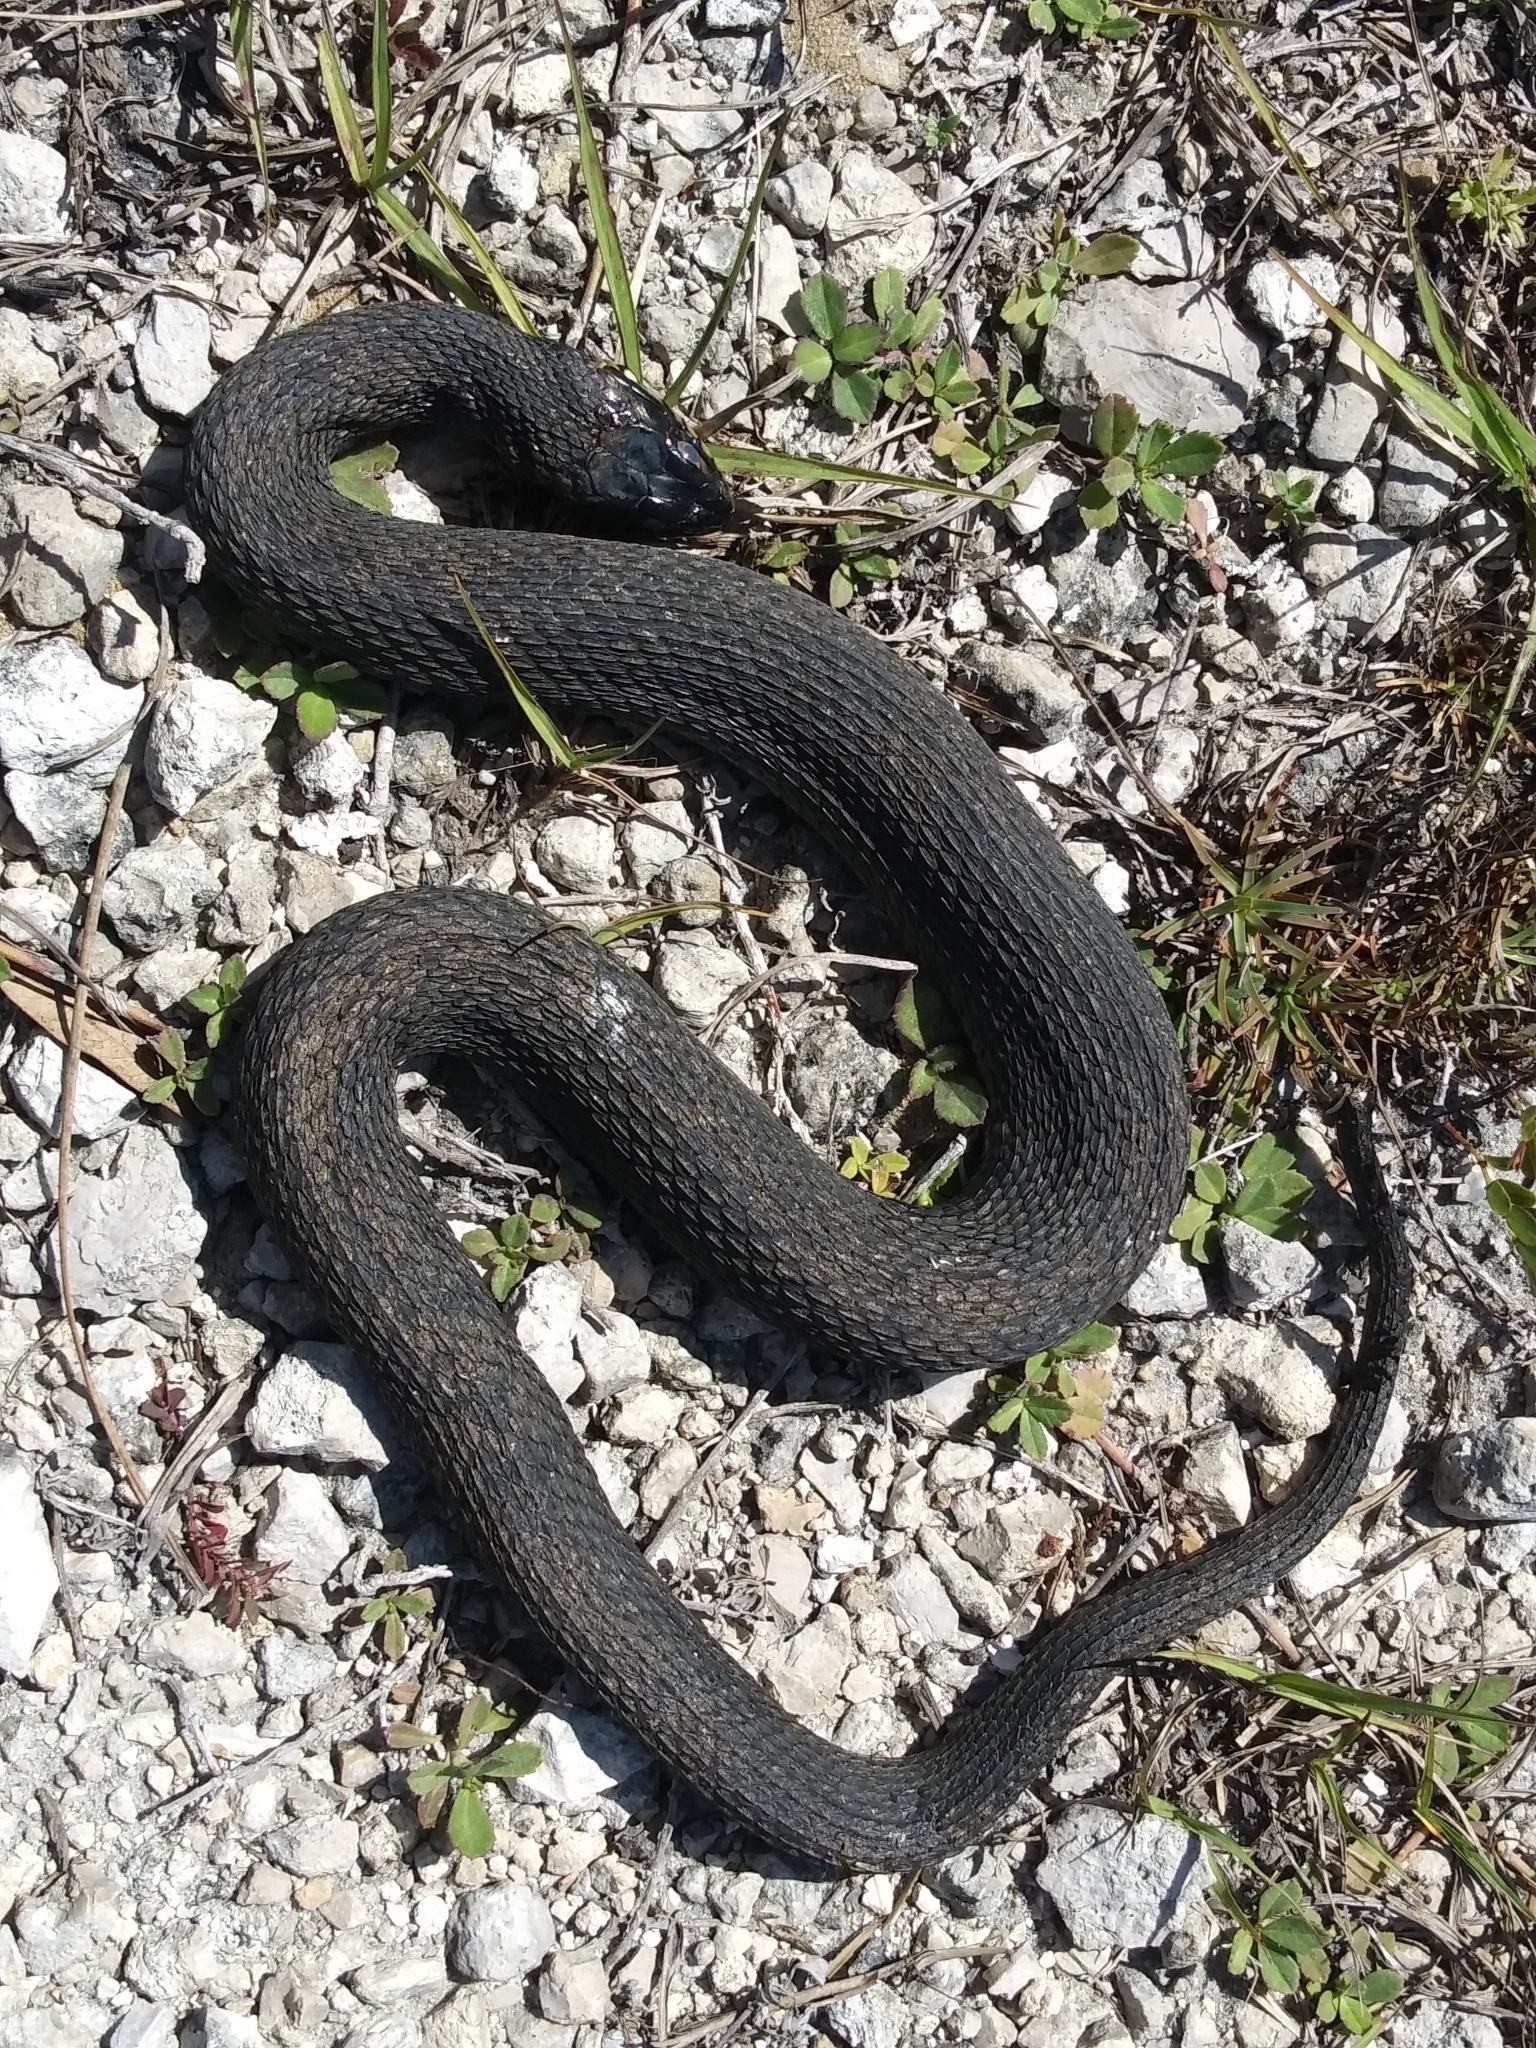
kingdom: Animalia
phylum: Chordata
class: Squamata
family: Colubridae
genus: Nerodia
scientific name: Nerodia fasciata
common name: Southern water snake
